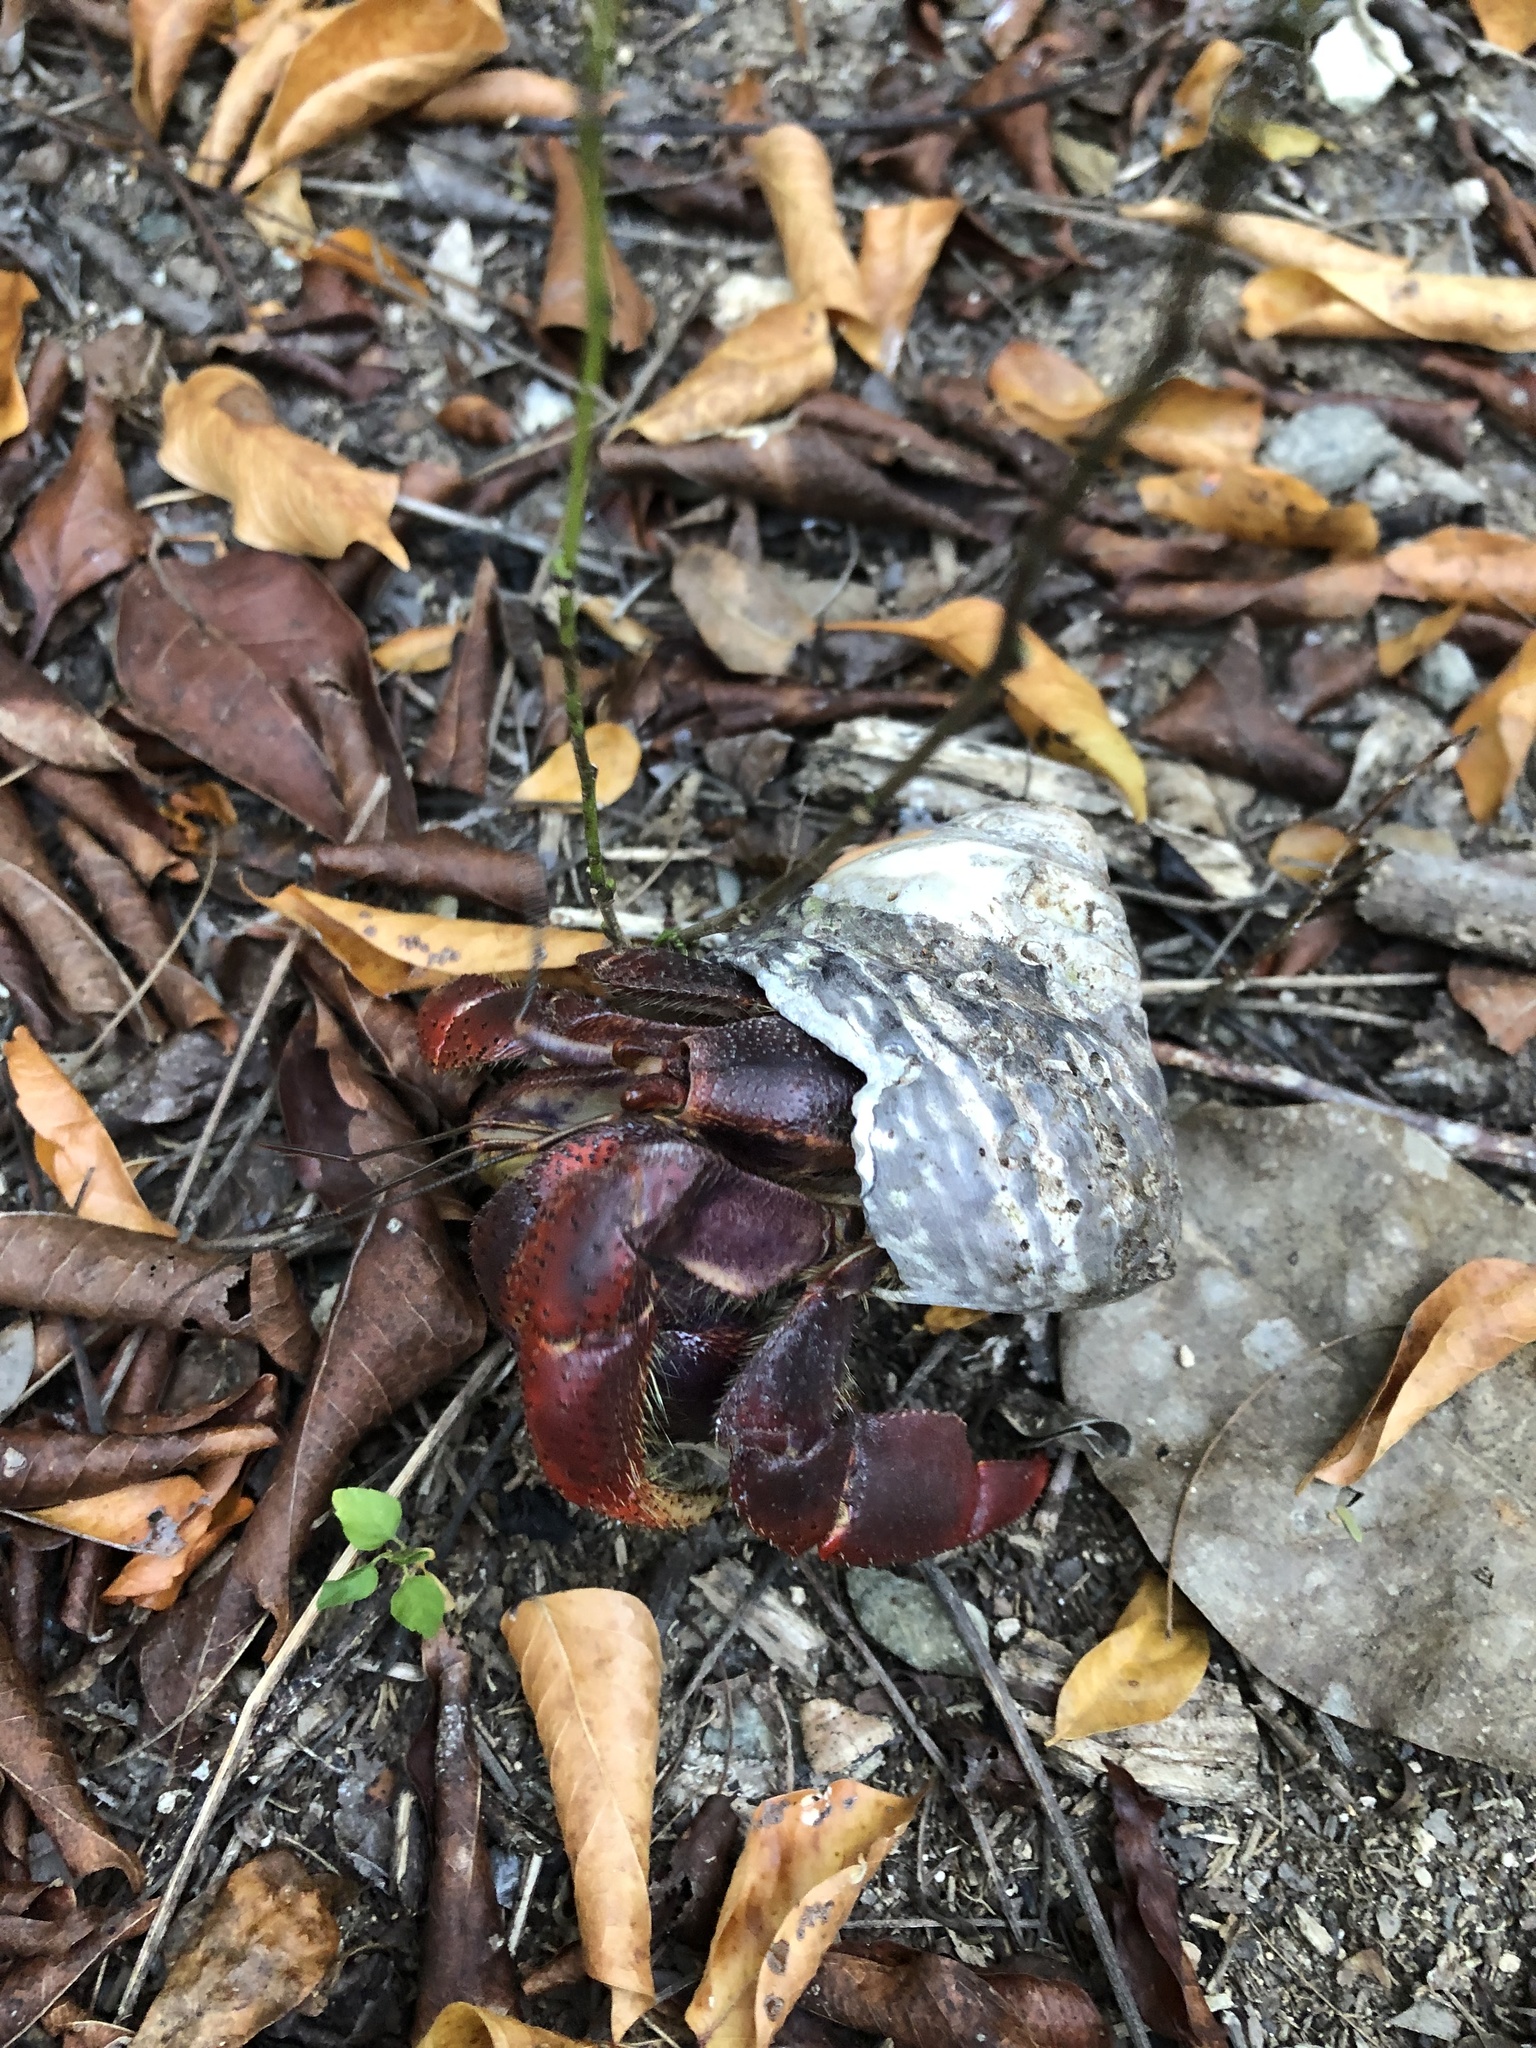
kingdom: Animalia
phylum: Arthropoda
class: Malacostraca
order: Decapoda
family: Coenobitidae
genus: Coenobita
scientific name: Coenobita clypeatus
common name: Caribbean hermit crab
